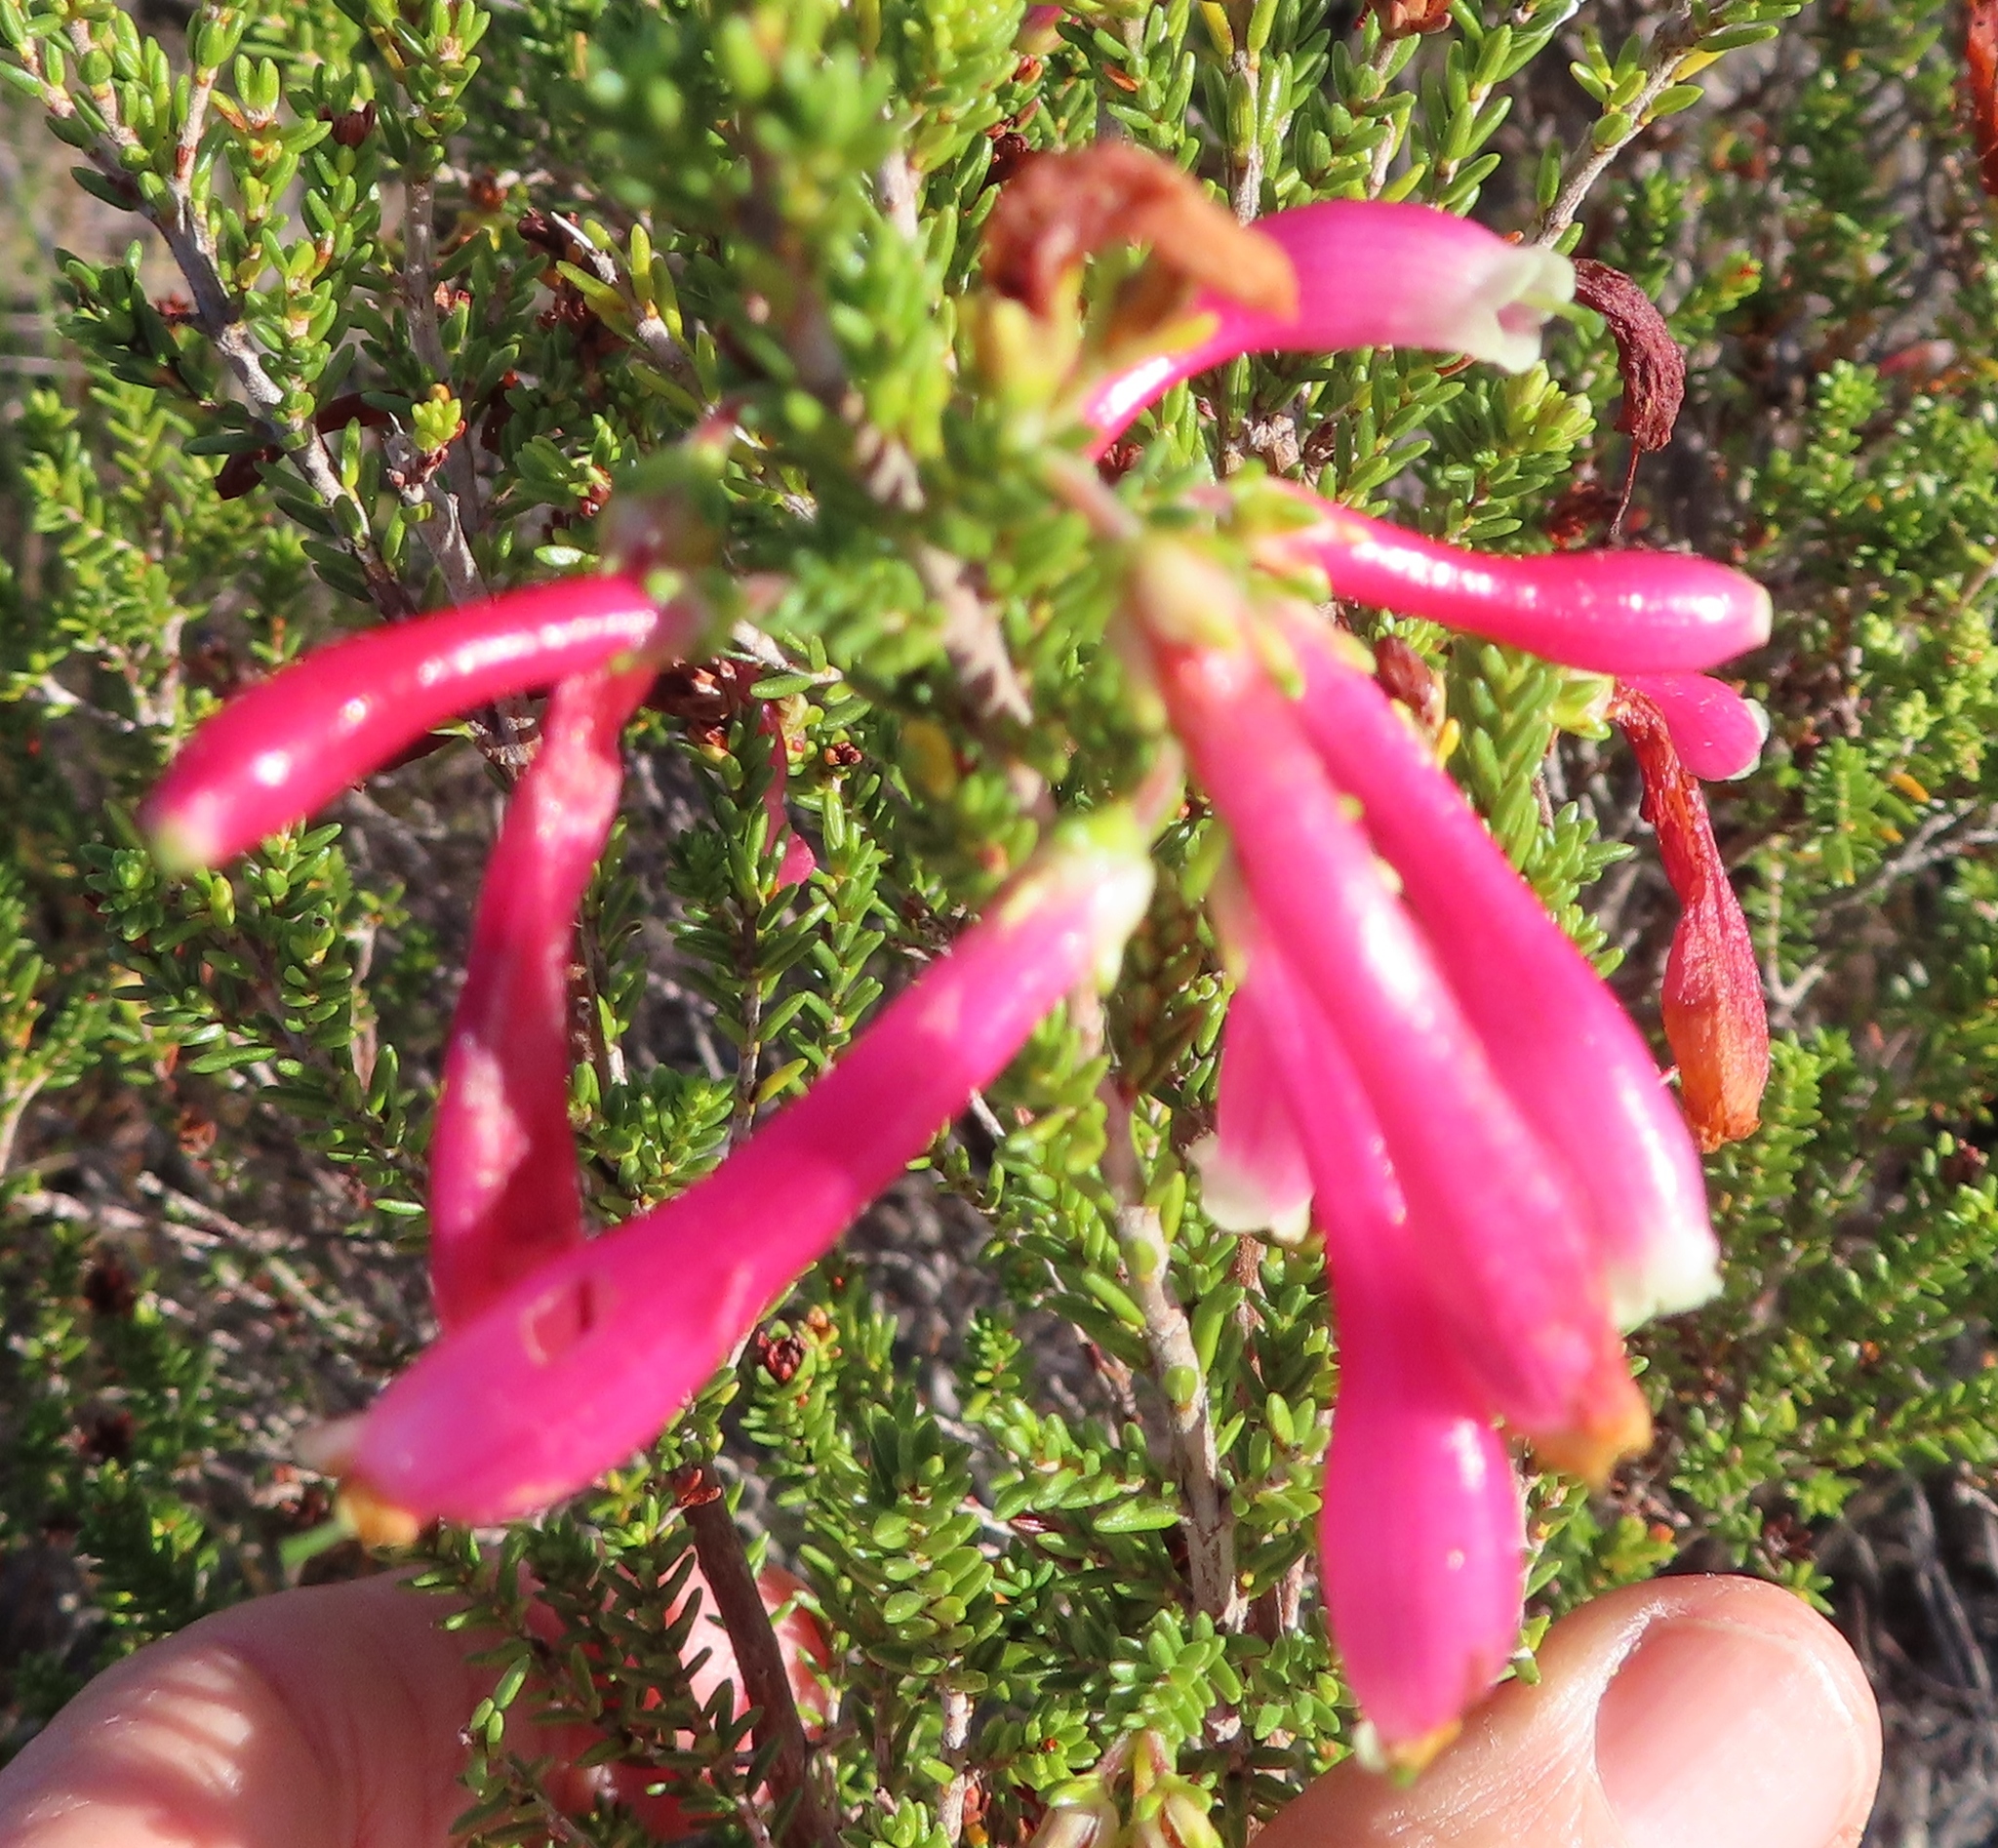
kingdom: Plantae
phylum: Tracheophyta
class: Magnoliopsida
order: Ericales
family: Ericaceae
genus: Erica
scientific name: Erica discolor
